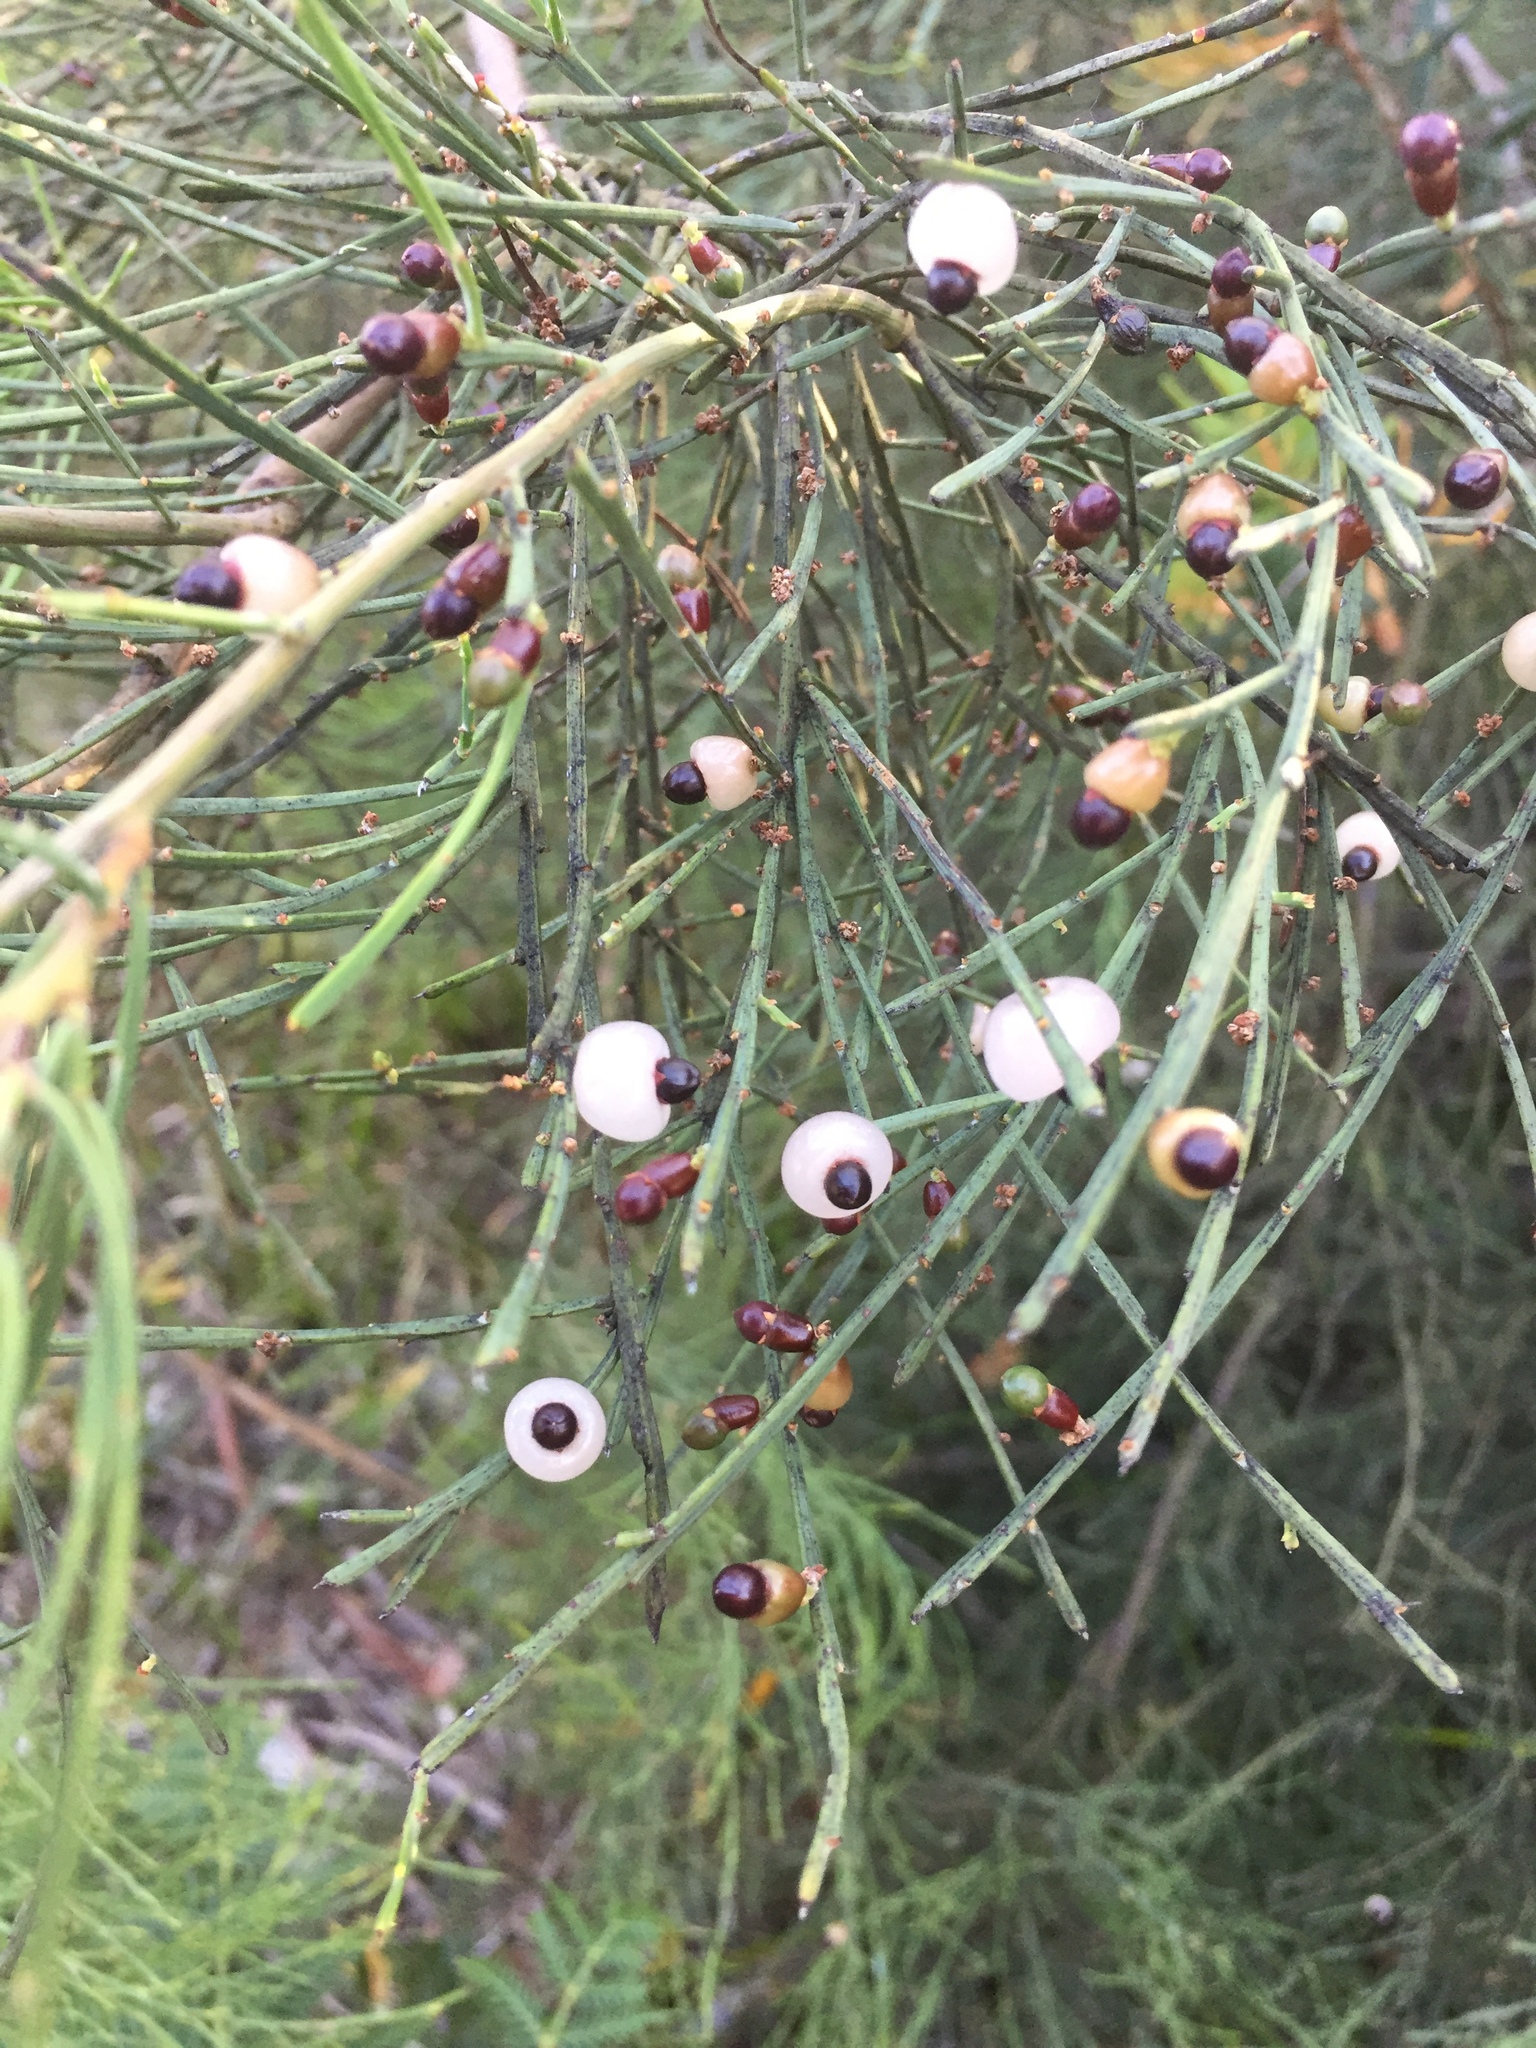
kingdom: Plantae
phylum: Tracheophyta
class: Magnoliopsida
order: Santalales
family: Santalaceae
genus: Exocarpos
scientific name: Exocarpos syrticola
